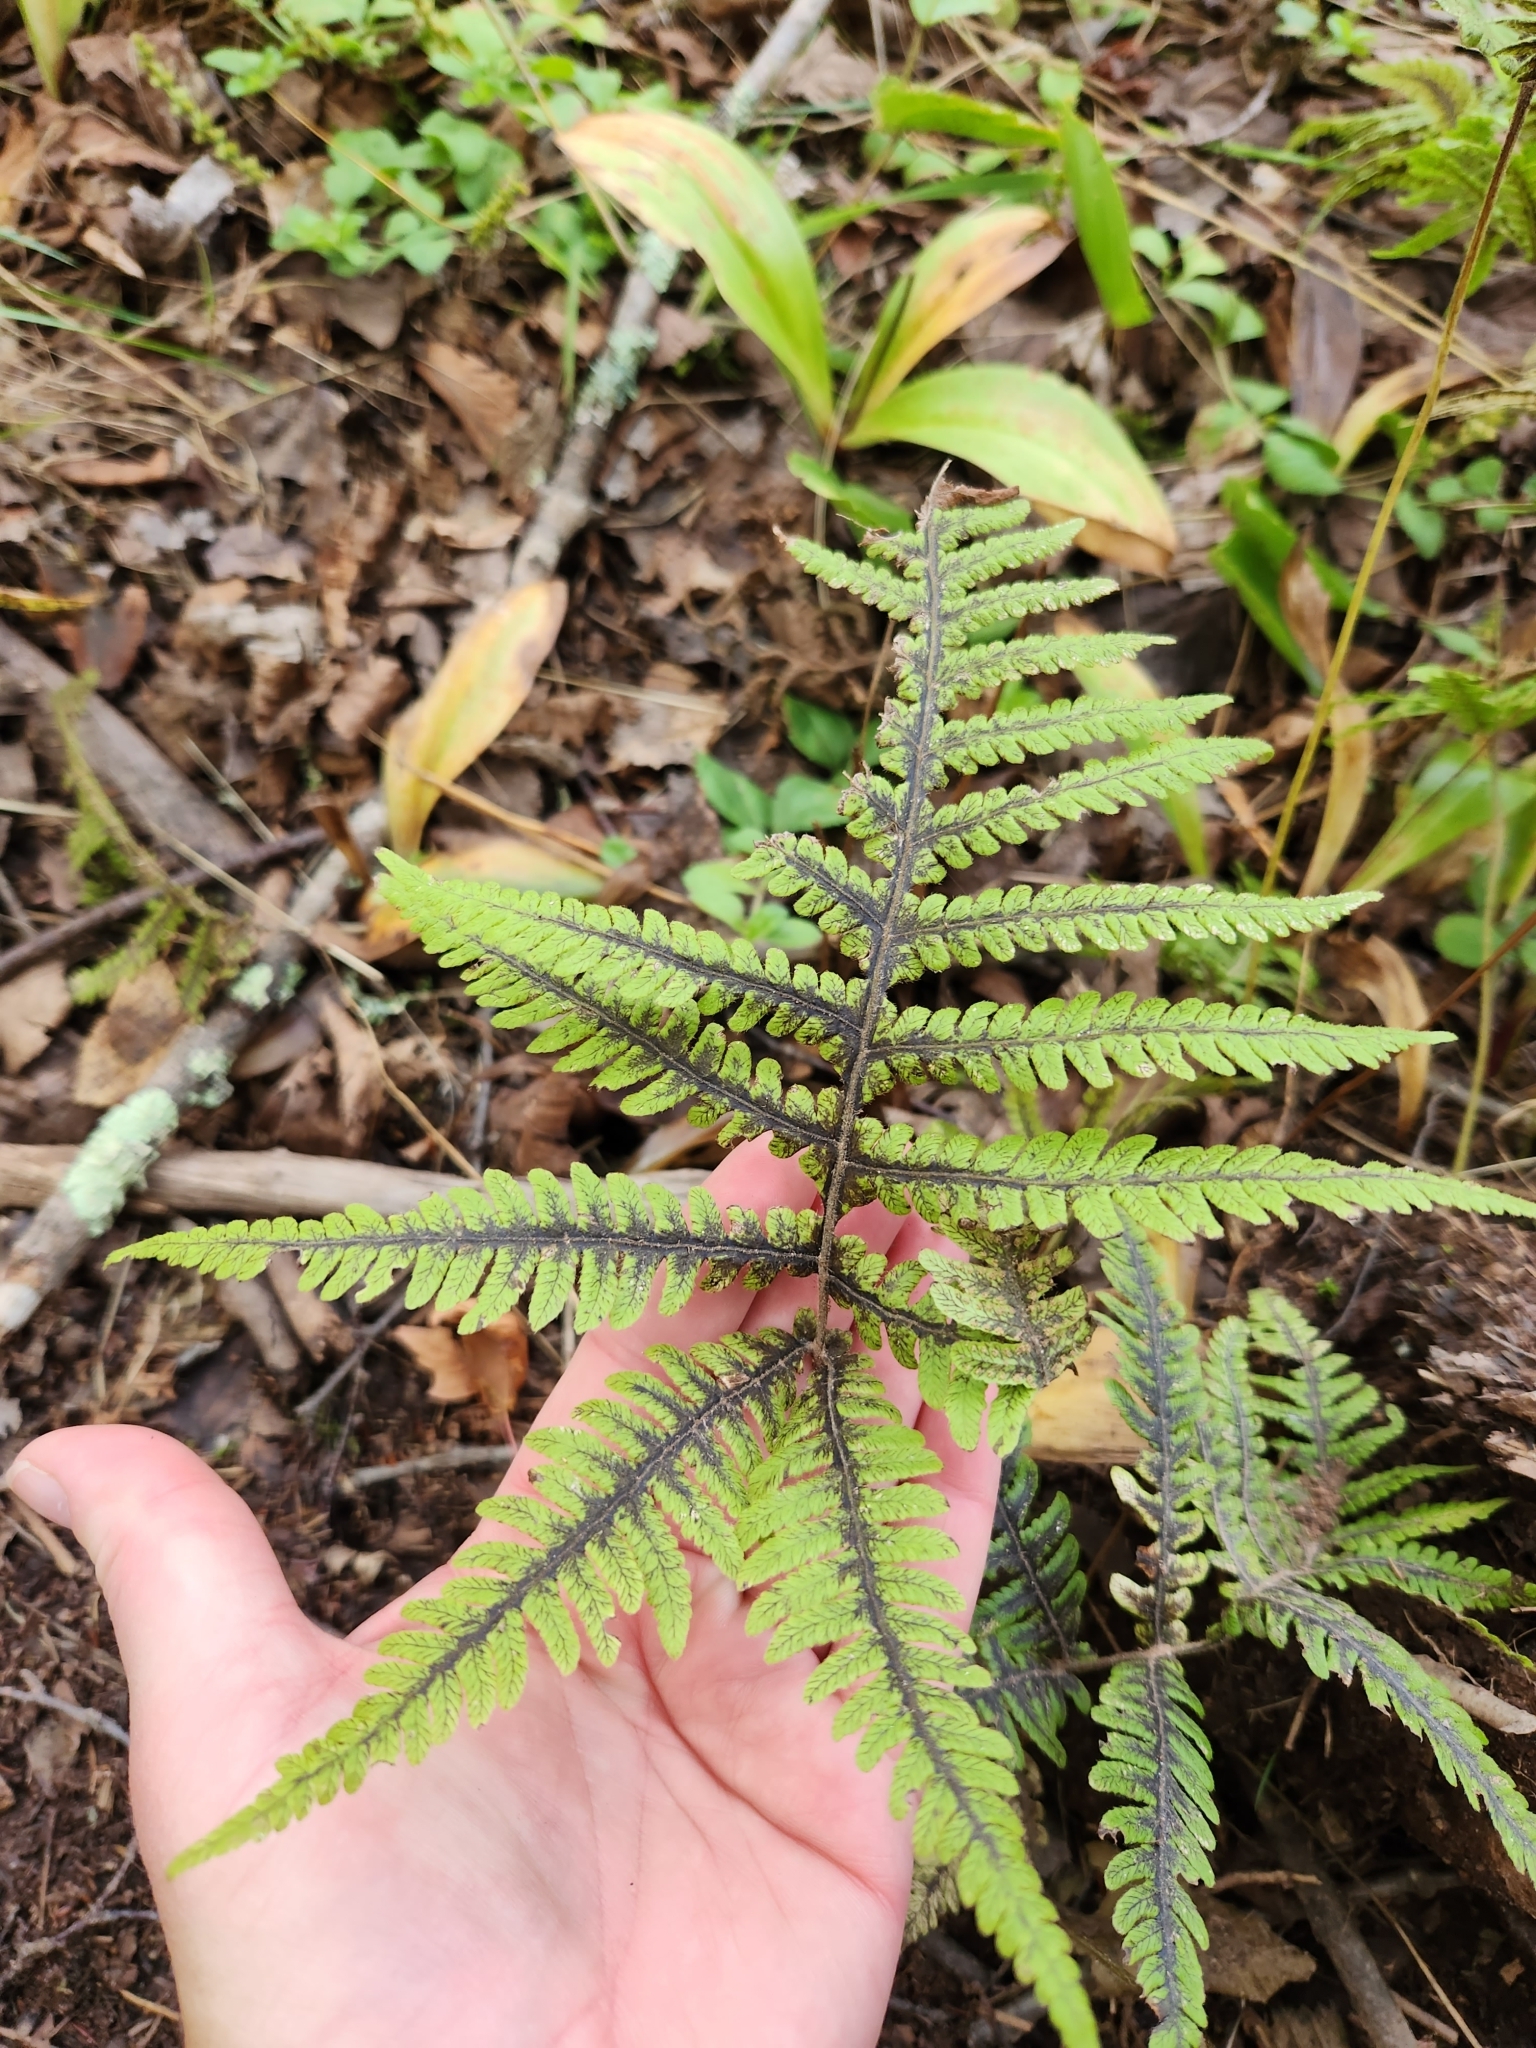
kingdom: Plantae
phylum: Tracheophyta
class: Polypodiopsida
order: Polypodiales
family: Thelypteridaceae
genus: Phegopteris
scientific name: Phegopteris connectilis
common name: Beech fern
